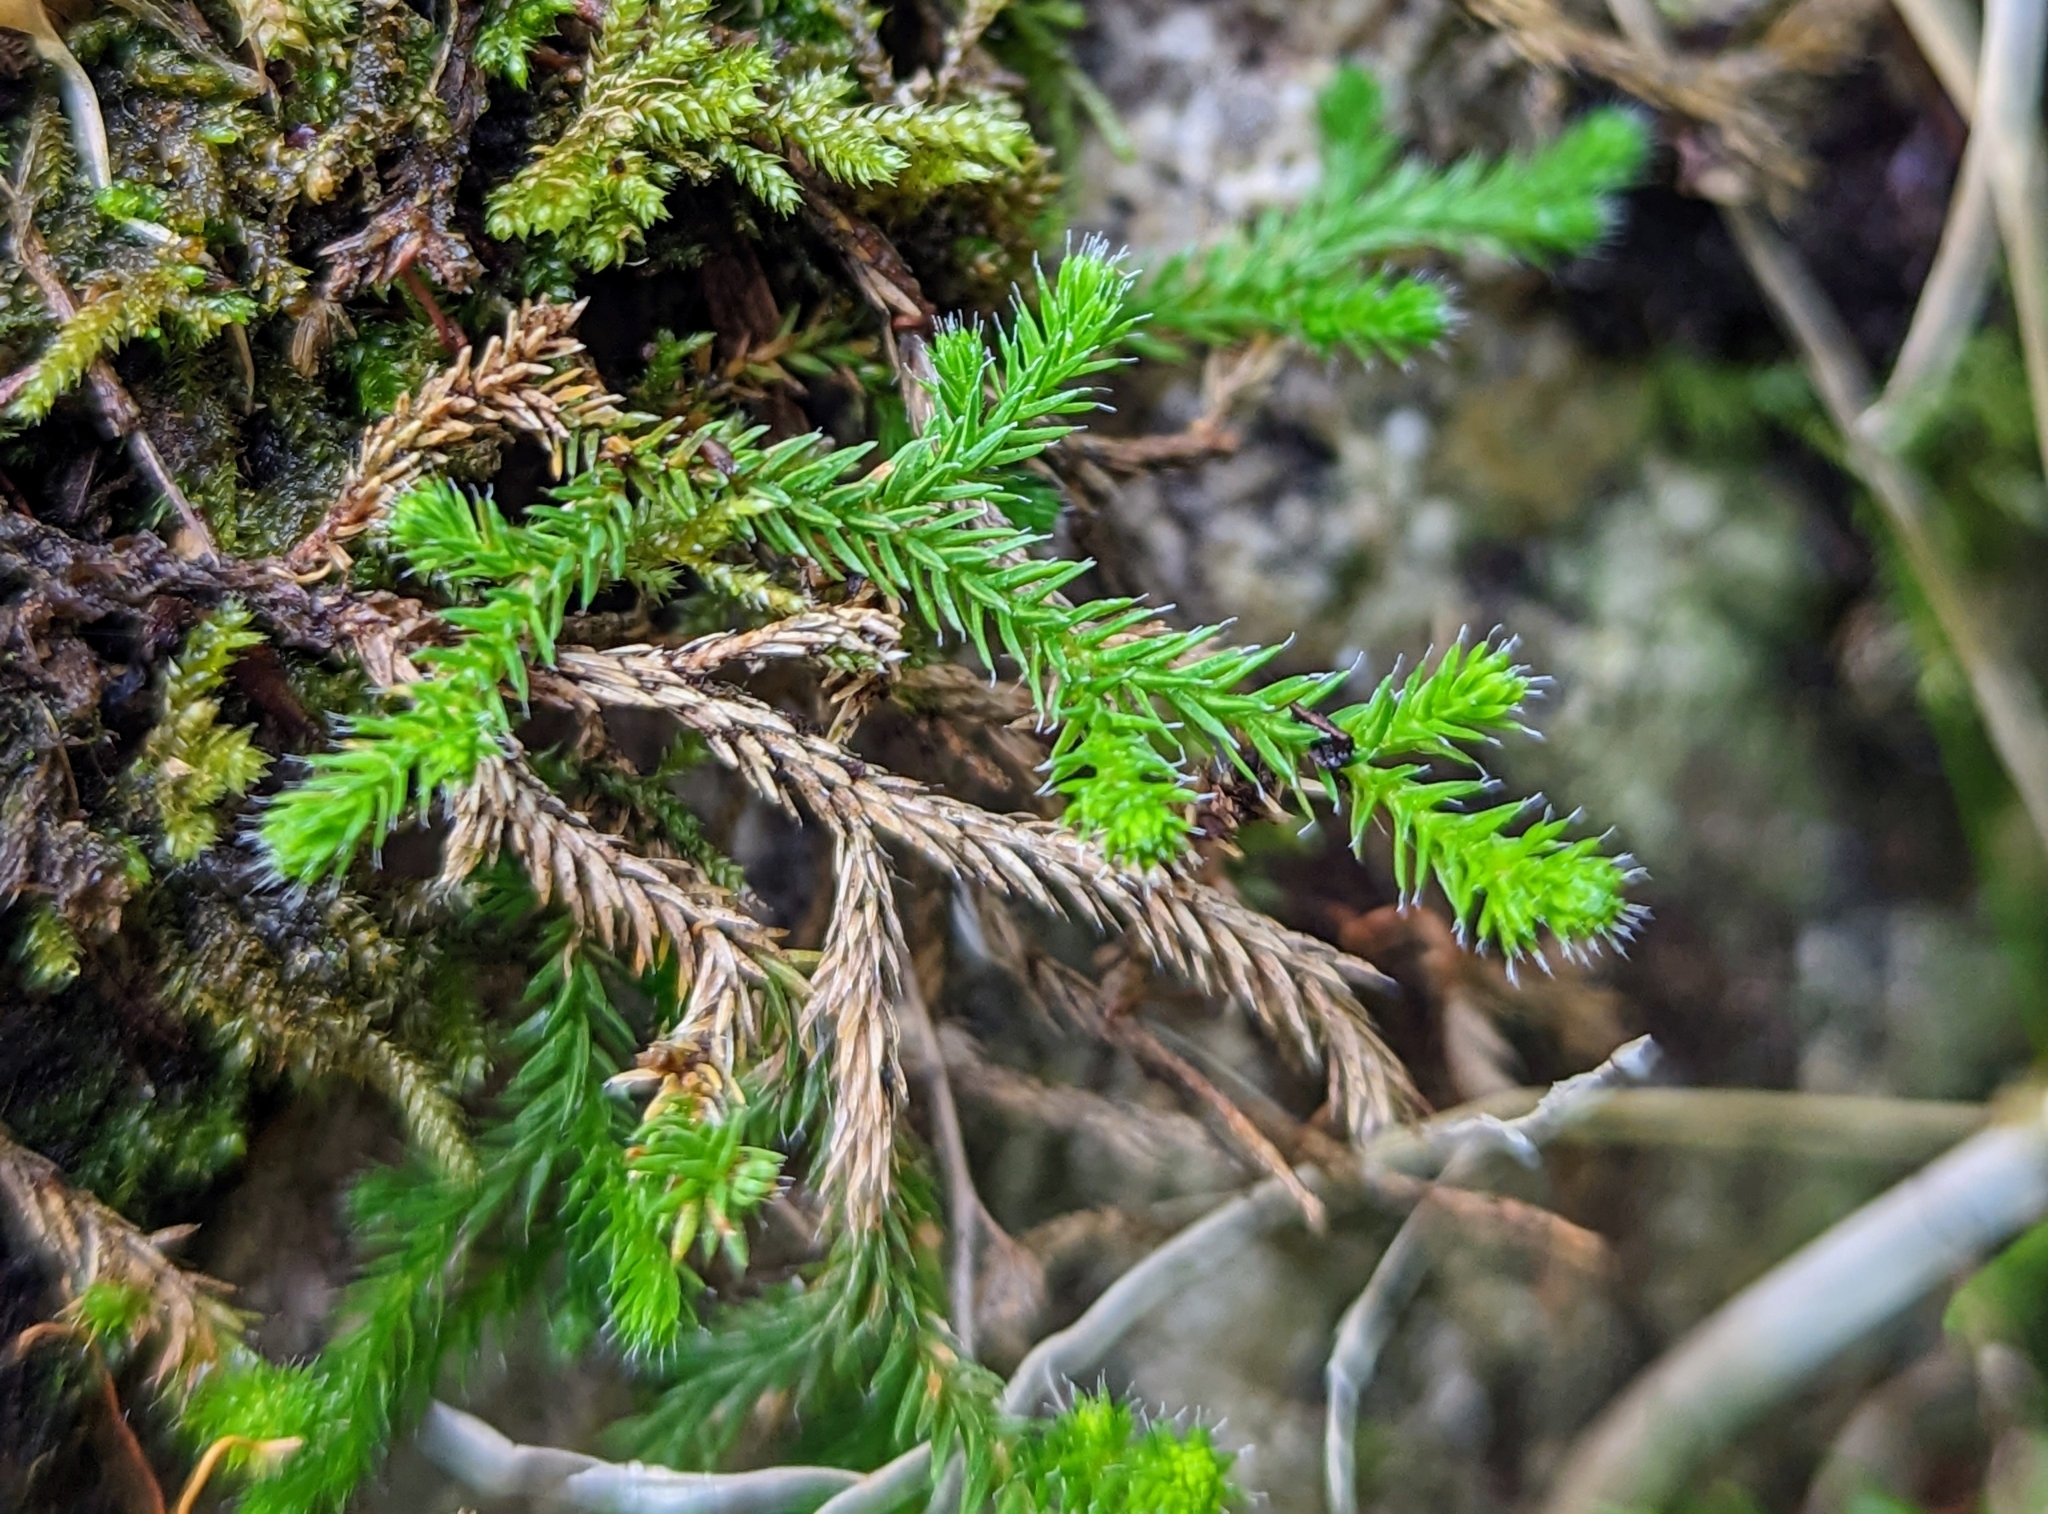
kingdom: Plantae
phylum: Tracheophyta
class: Lycopodiopsida
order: Selaginellales
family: Selaginellaceae
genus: Selaginella
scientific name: Selaginella wallacei
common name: Wallace's selaginella
